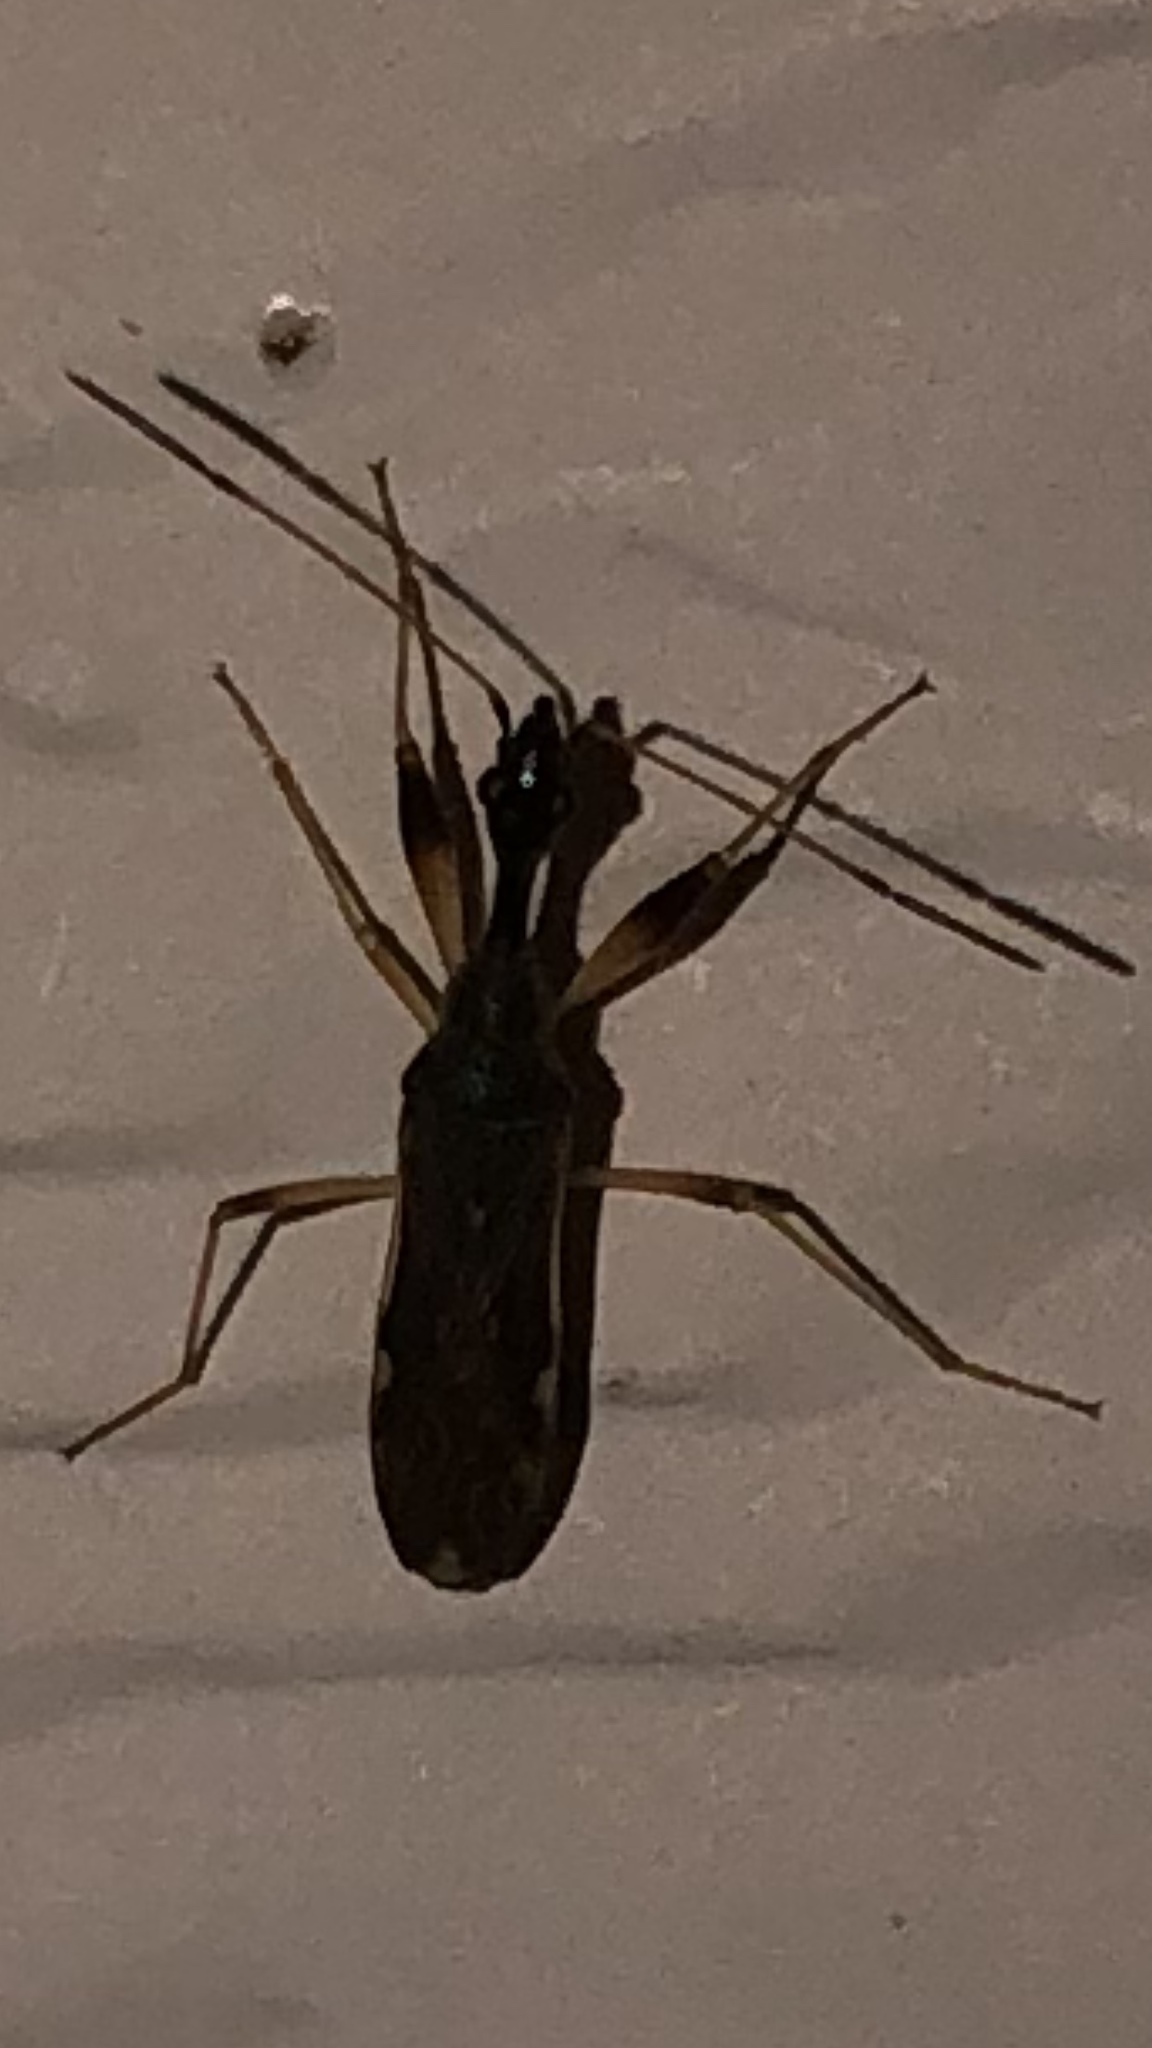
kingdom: Animalia
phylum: Arthropoda
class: Insecta
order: Hemiptera
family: Rhyparochromidae
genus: Myodocha
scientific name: Myodocha serripes
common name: Long-necked seed bug
